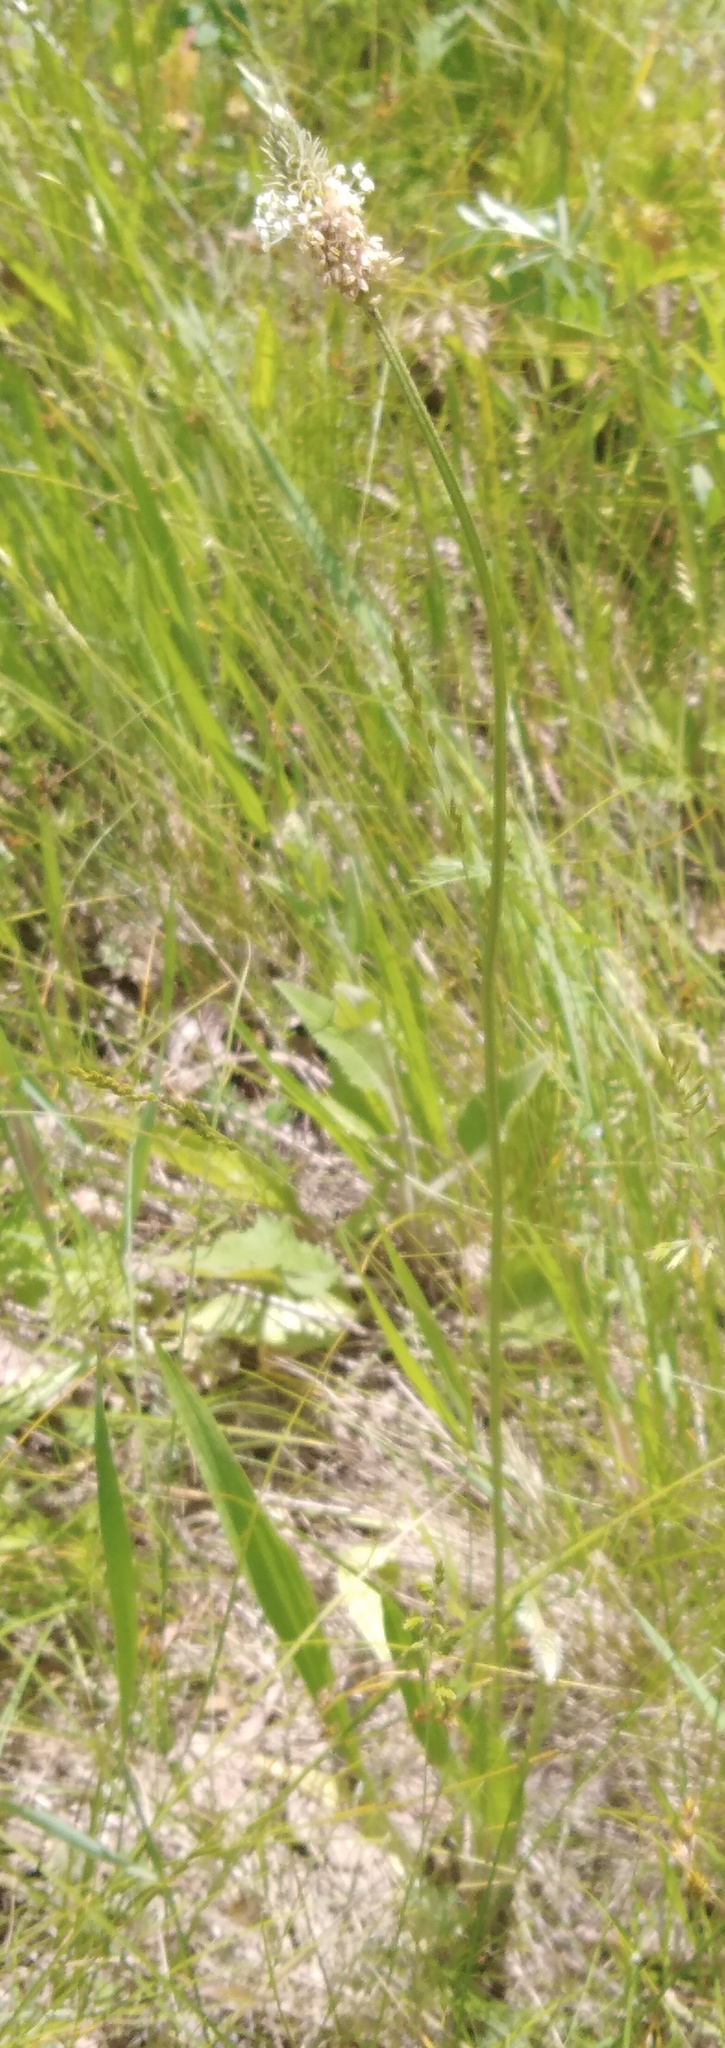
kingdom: Plantae
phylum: Tracheophyta
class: Magnoliopsida
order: Lamiales
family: Plantaginaceae
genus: Plantago
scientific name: Plantago lanceolata
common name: Ribwort plantain
